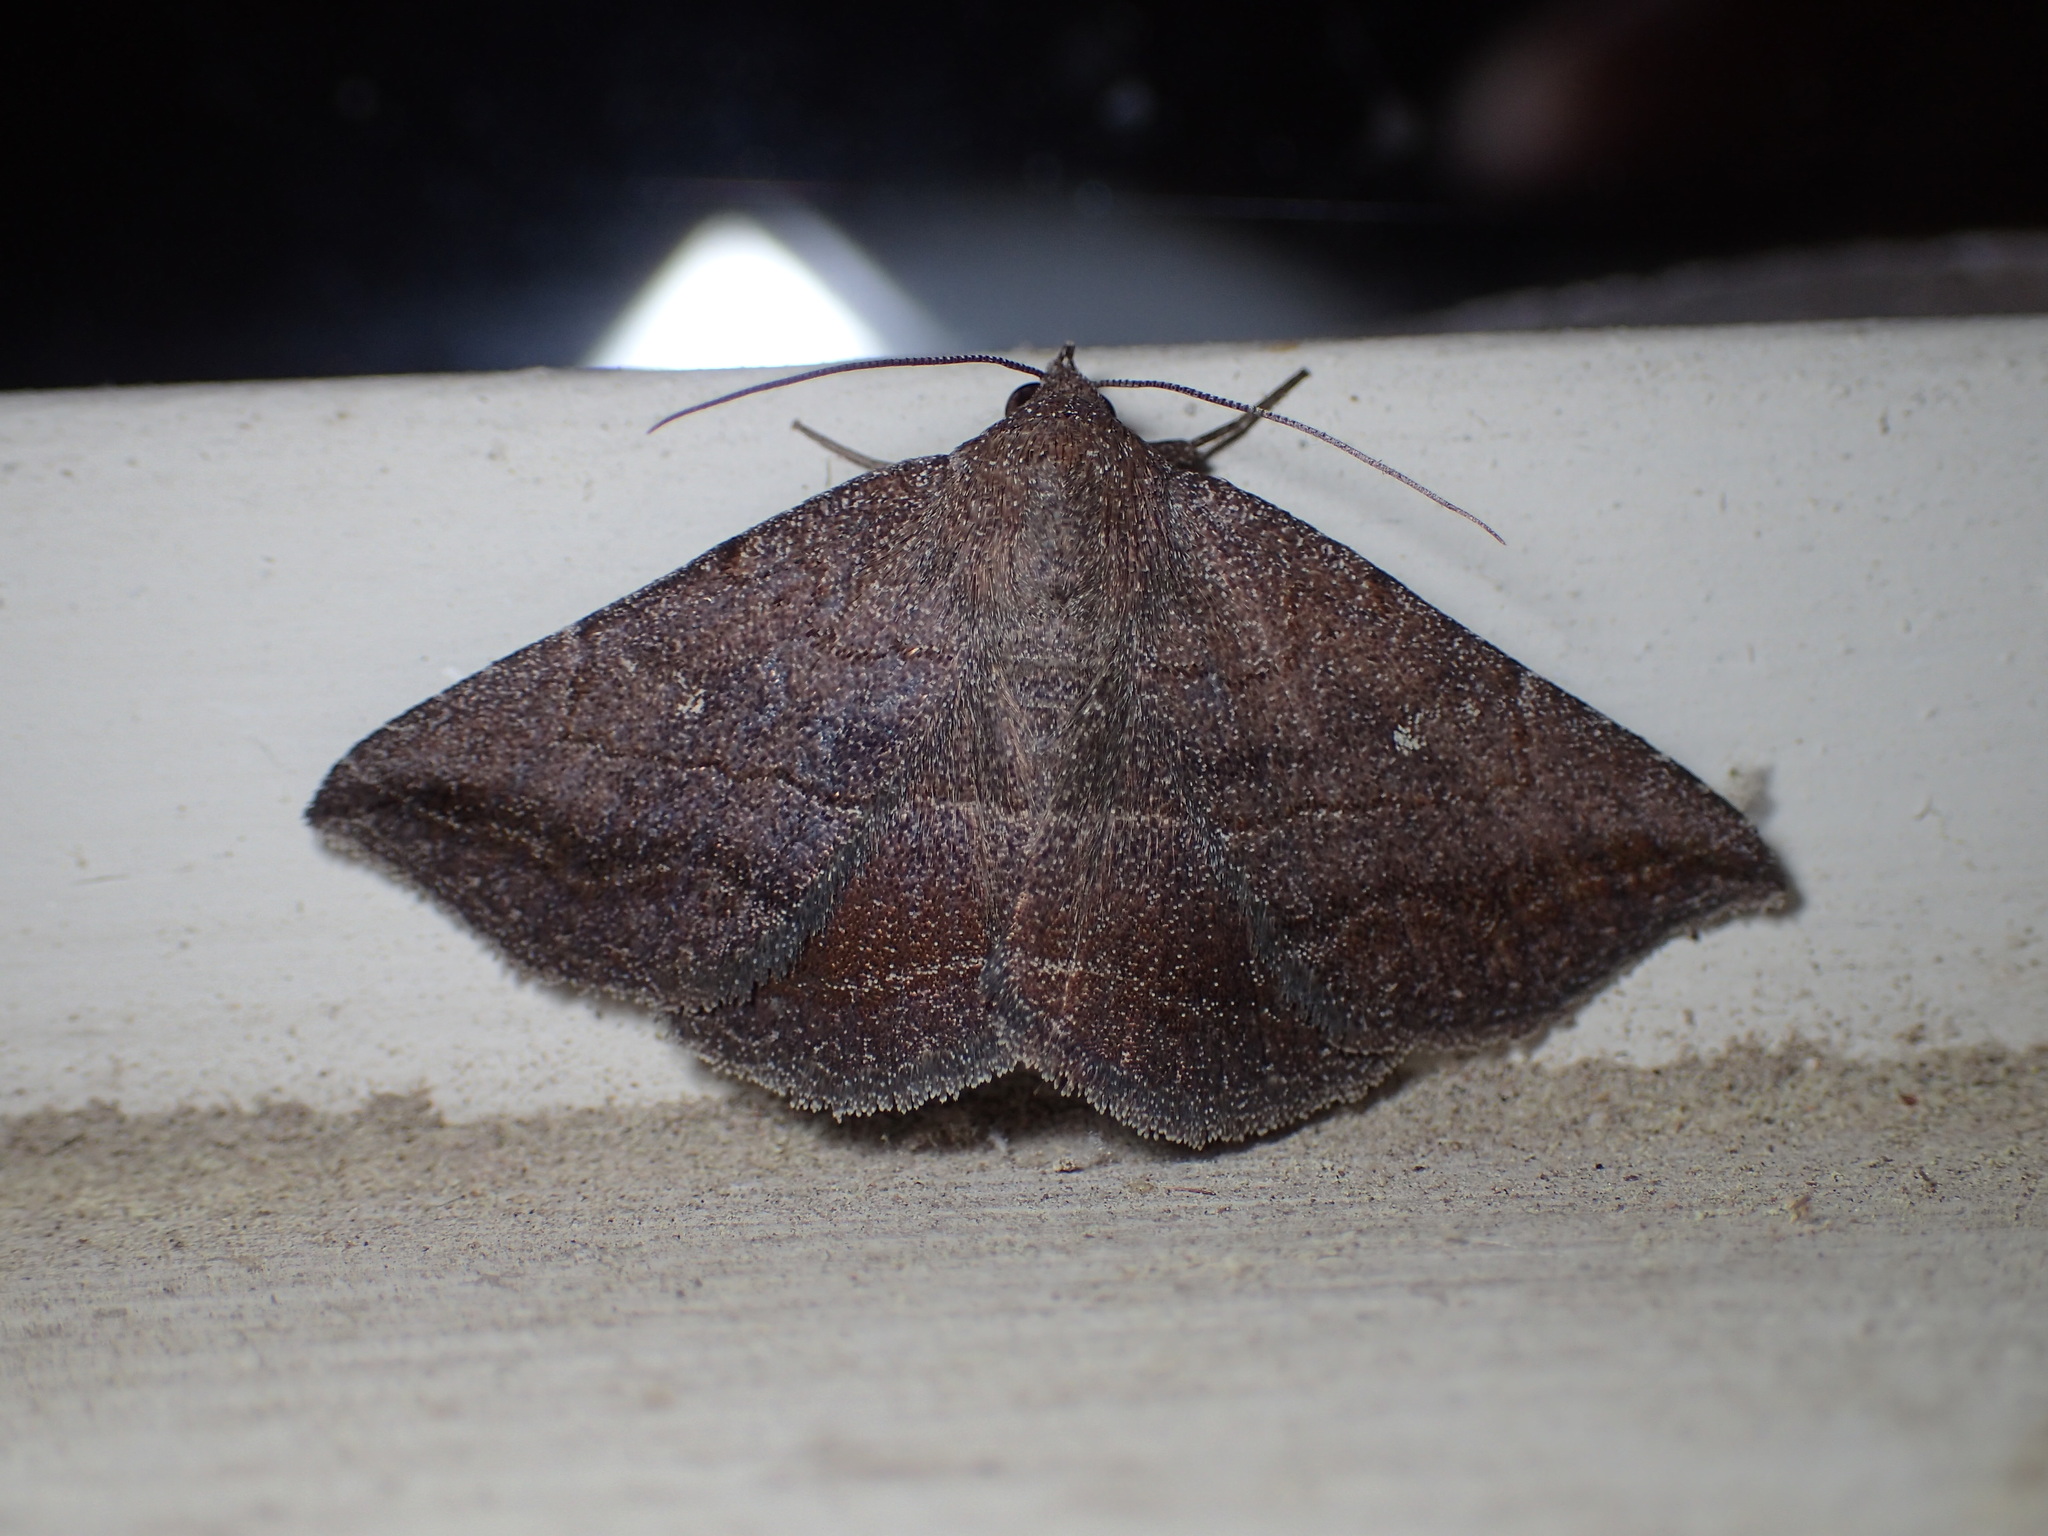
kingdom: Animalia
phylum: Arthropoda
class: Insecta
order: Lepidoptera
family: Erebidae
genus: Lesmone
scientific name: Lesmone detrahens
